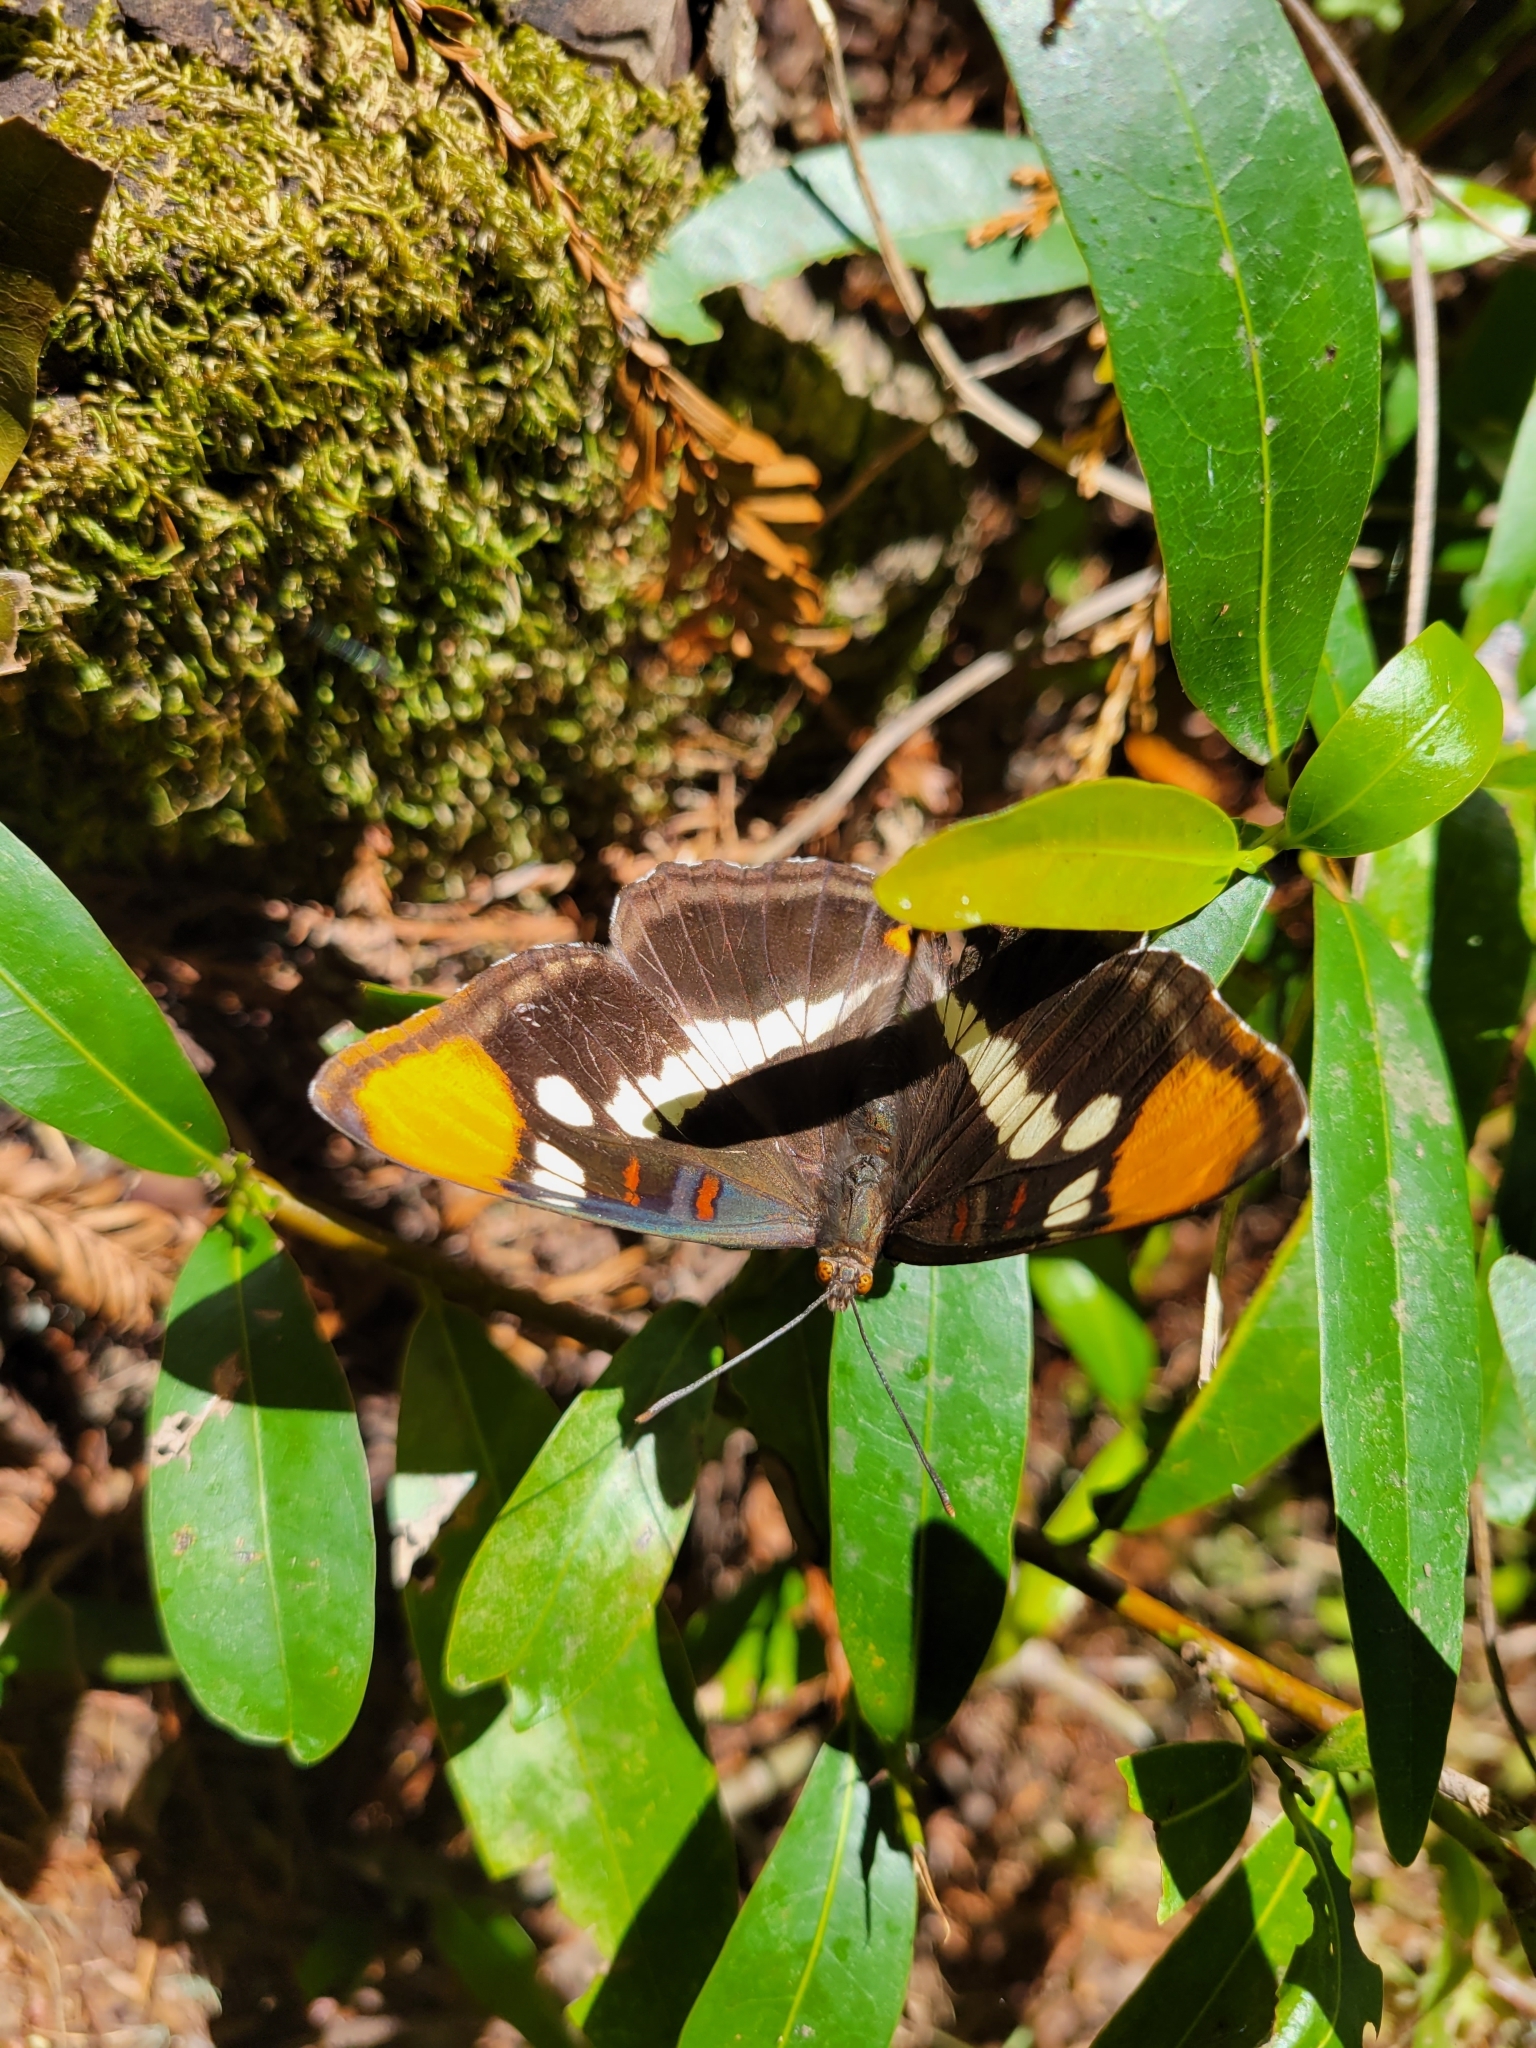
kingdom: Animalia
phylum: Arthropoda
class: Insecta
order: Lepidoptera
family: Nymphalidae
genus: Limenitis
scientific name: Limenitis bredowii
